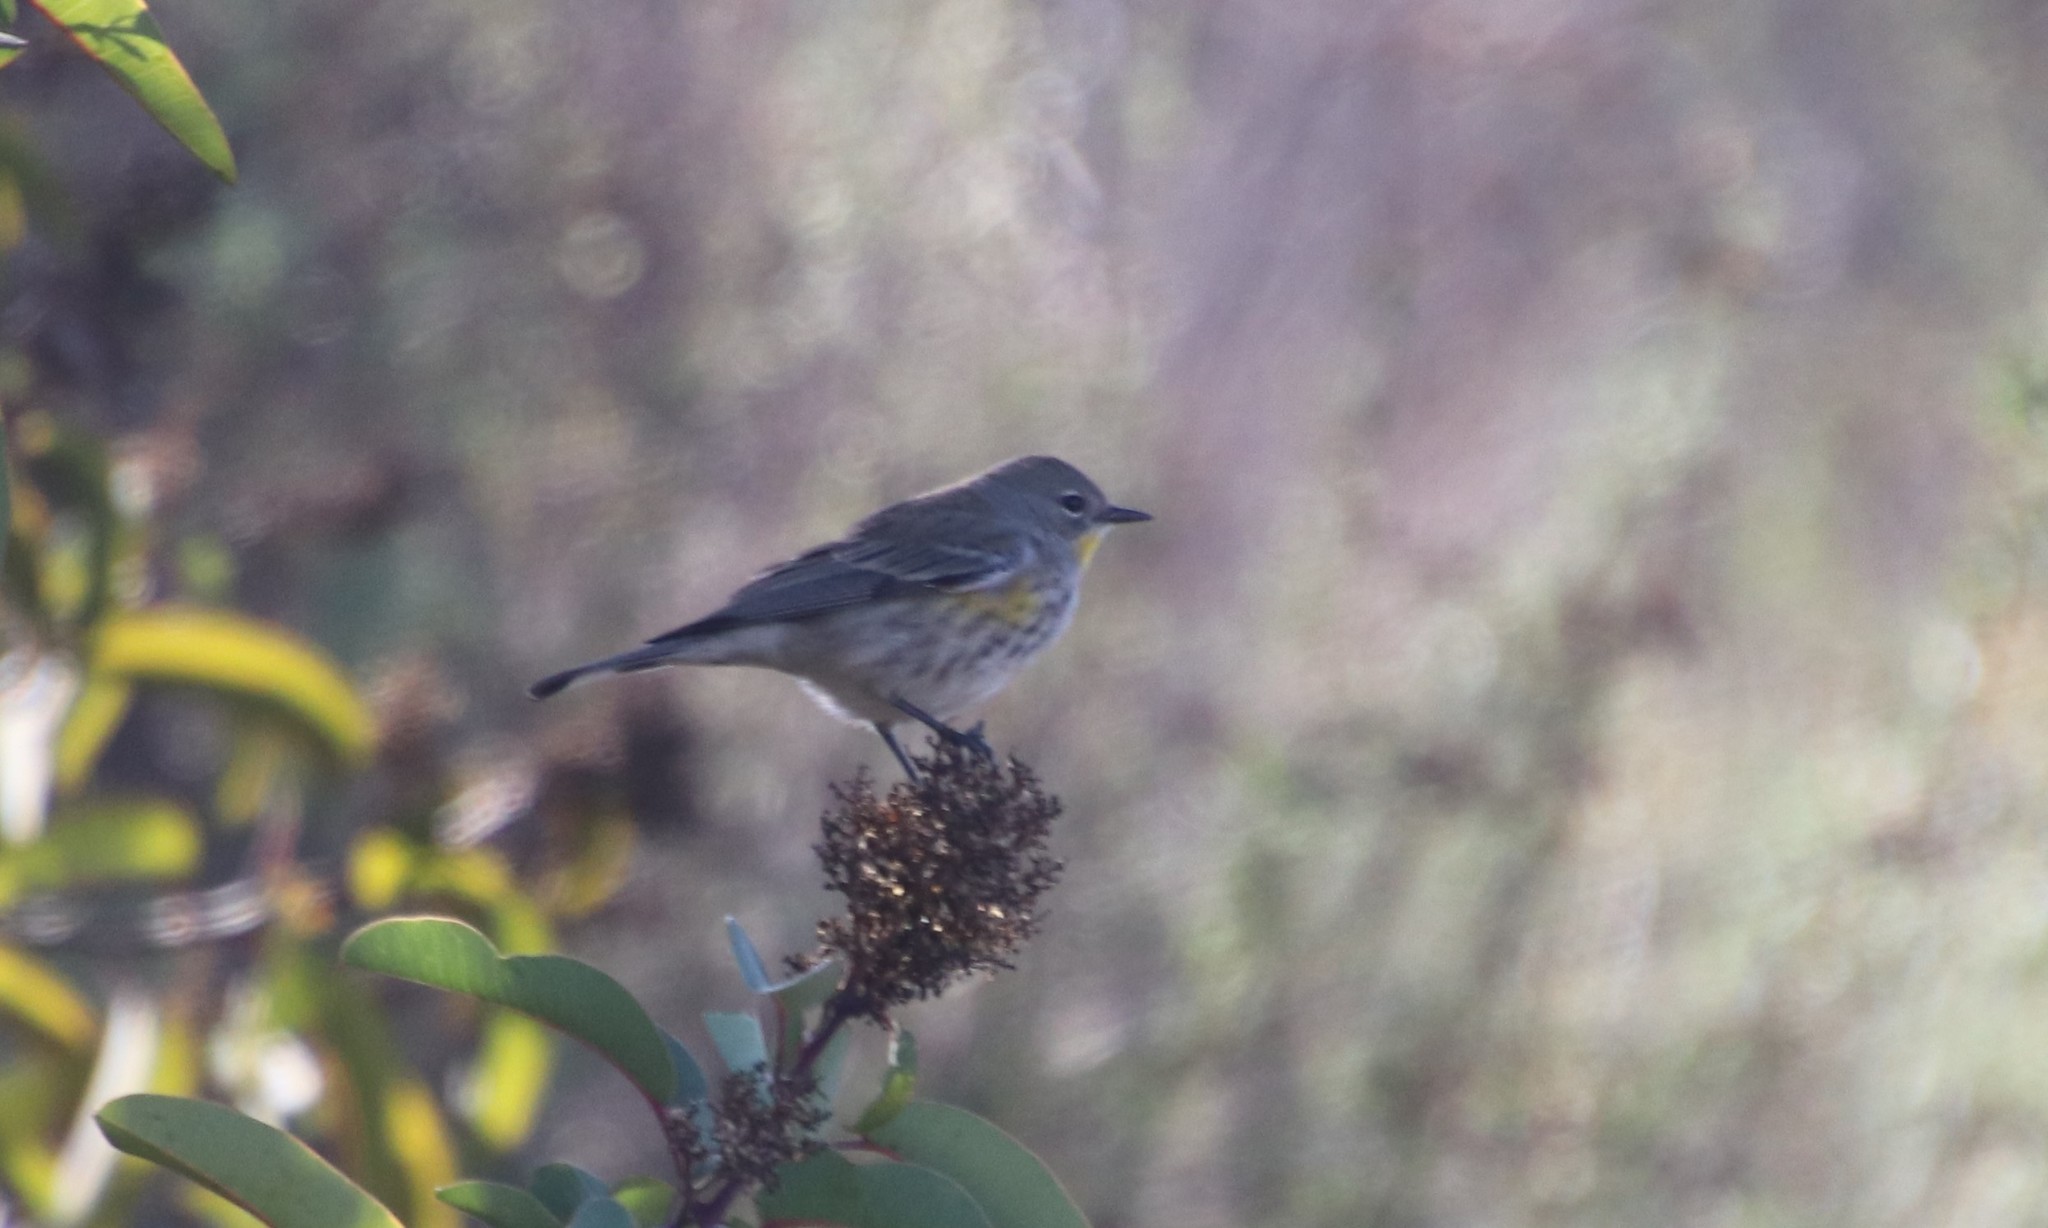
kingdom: Animalia
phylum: Chordata
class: Aves
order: Passeriformes
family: Parulidae
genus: Setophaga
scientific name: Setophaga coronata
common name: Myrtle warbler
